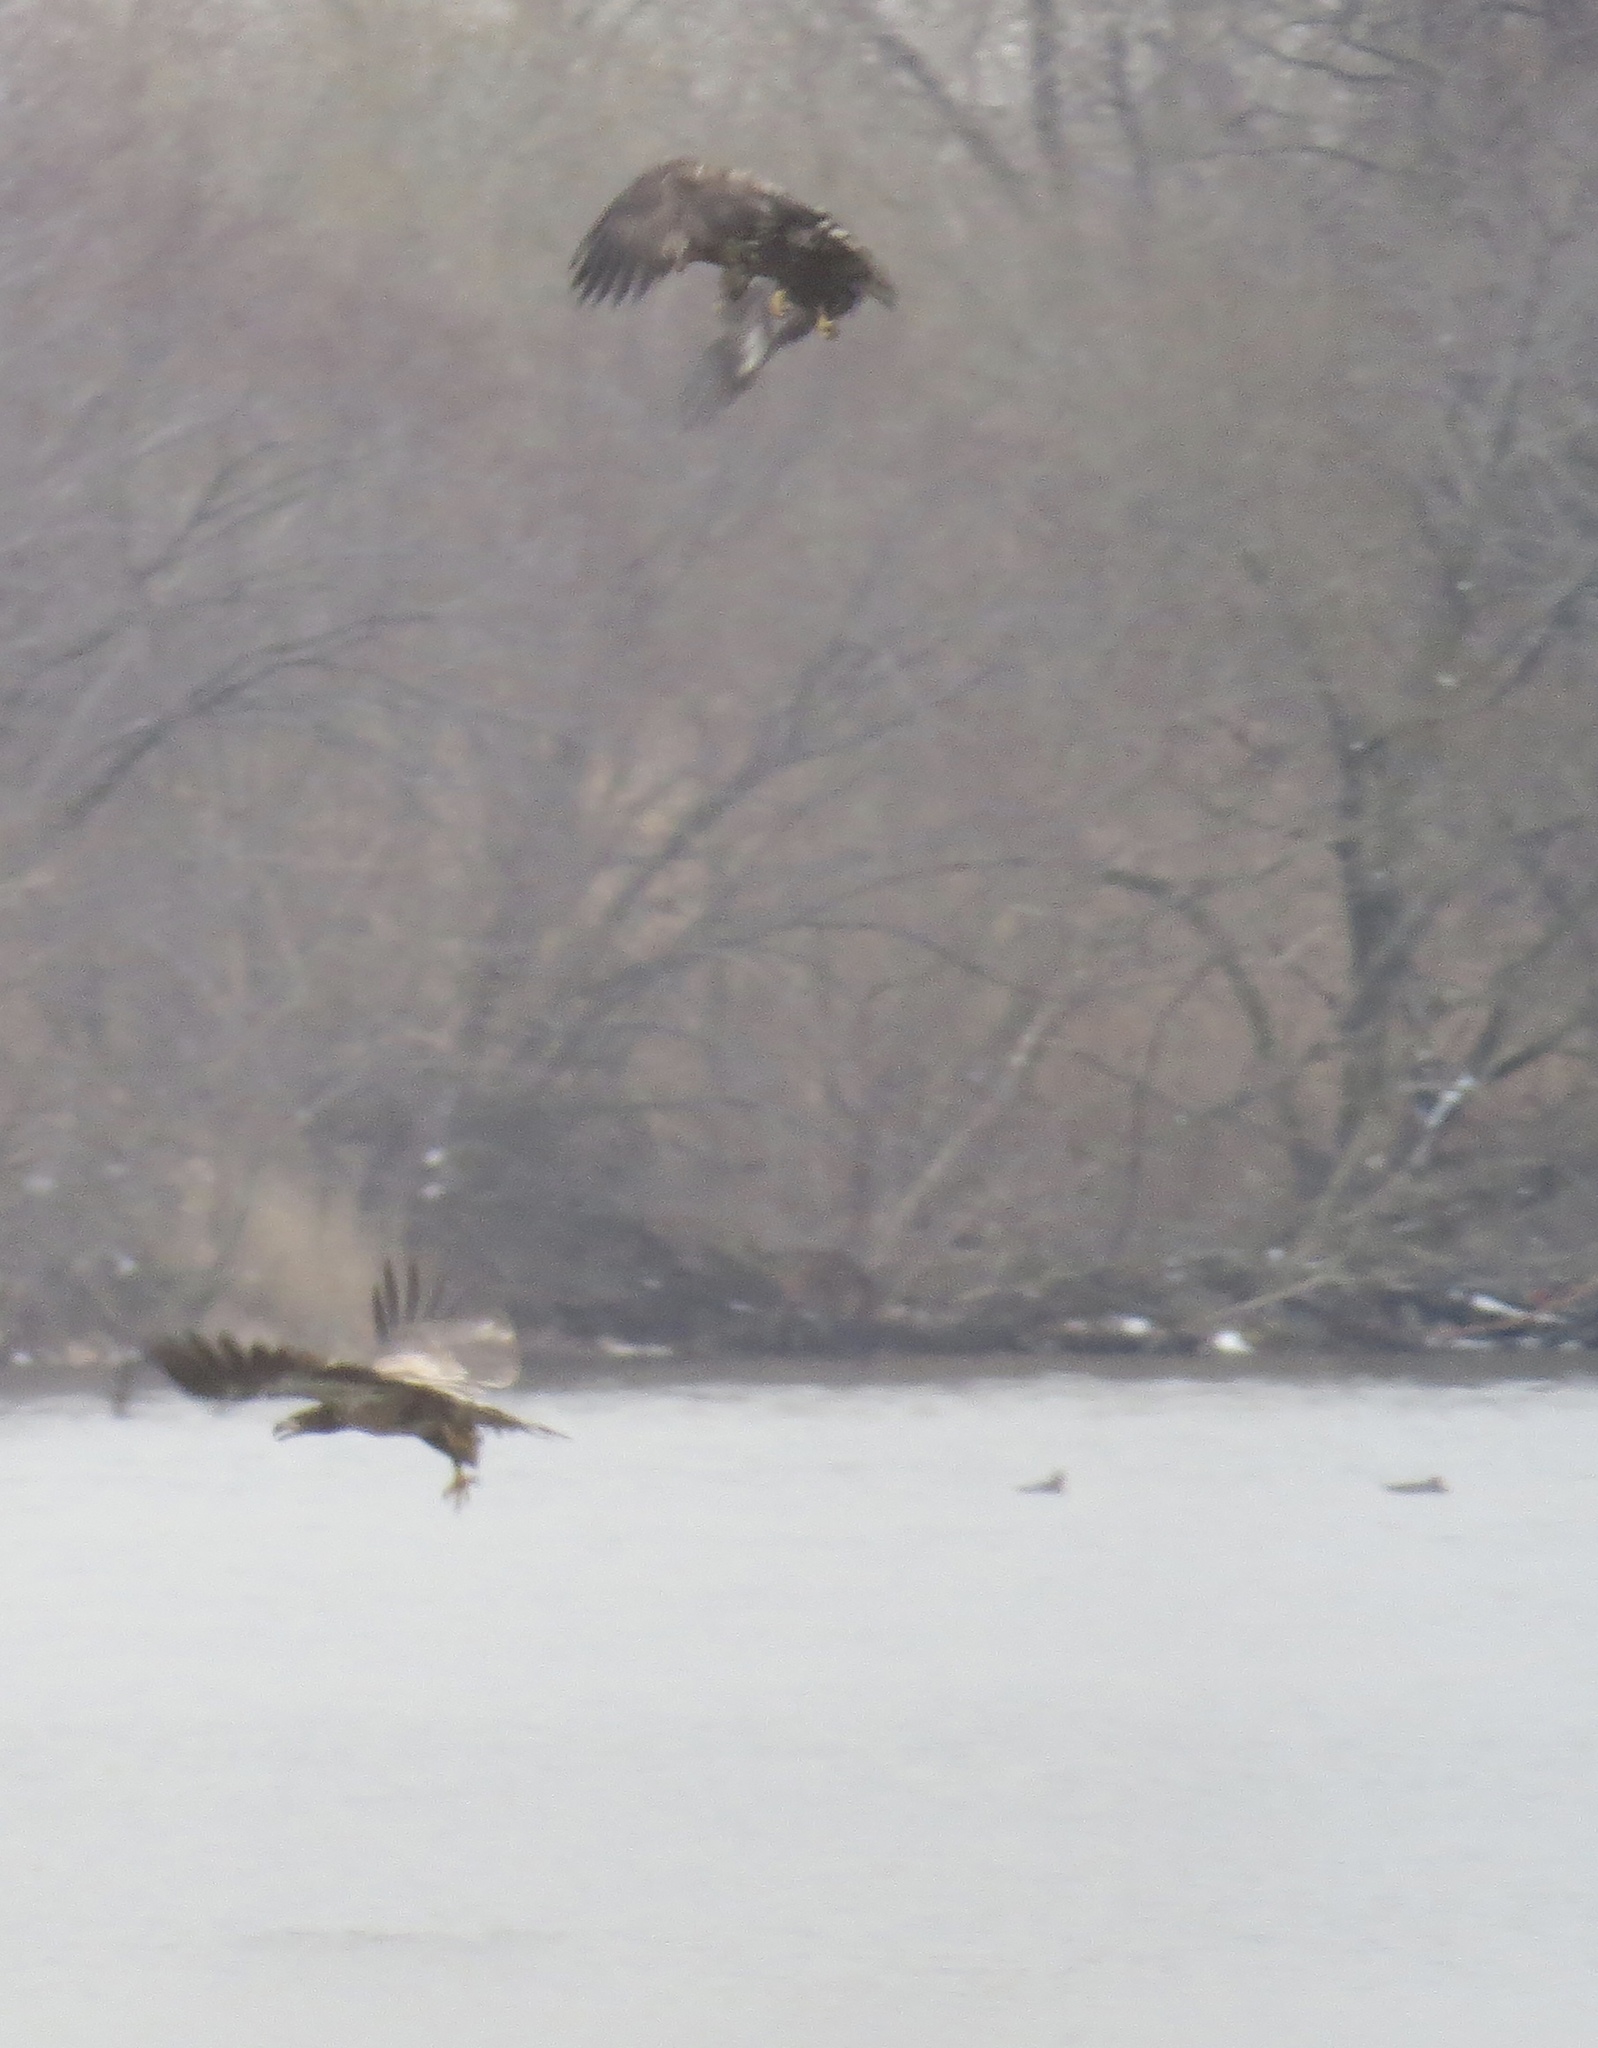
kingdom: Animalia
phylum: Chordata
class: Aves
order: Accipitriformes
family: Accipitridae
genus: Haliaeetus
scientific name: Haliaeetus leucocephalus
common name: Bald eagle
